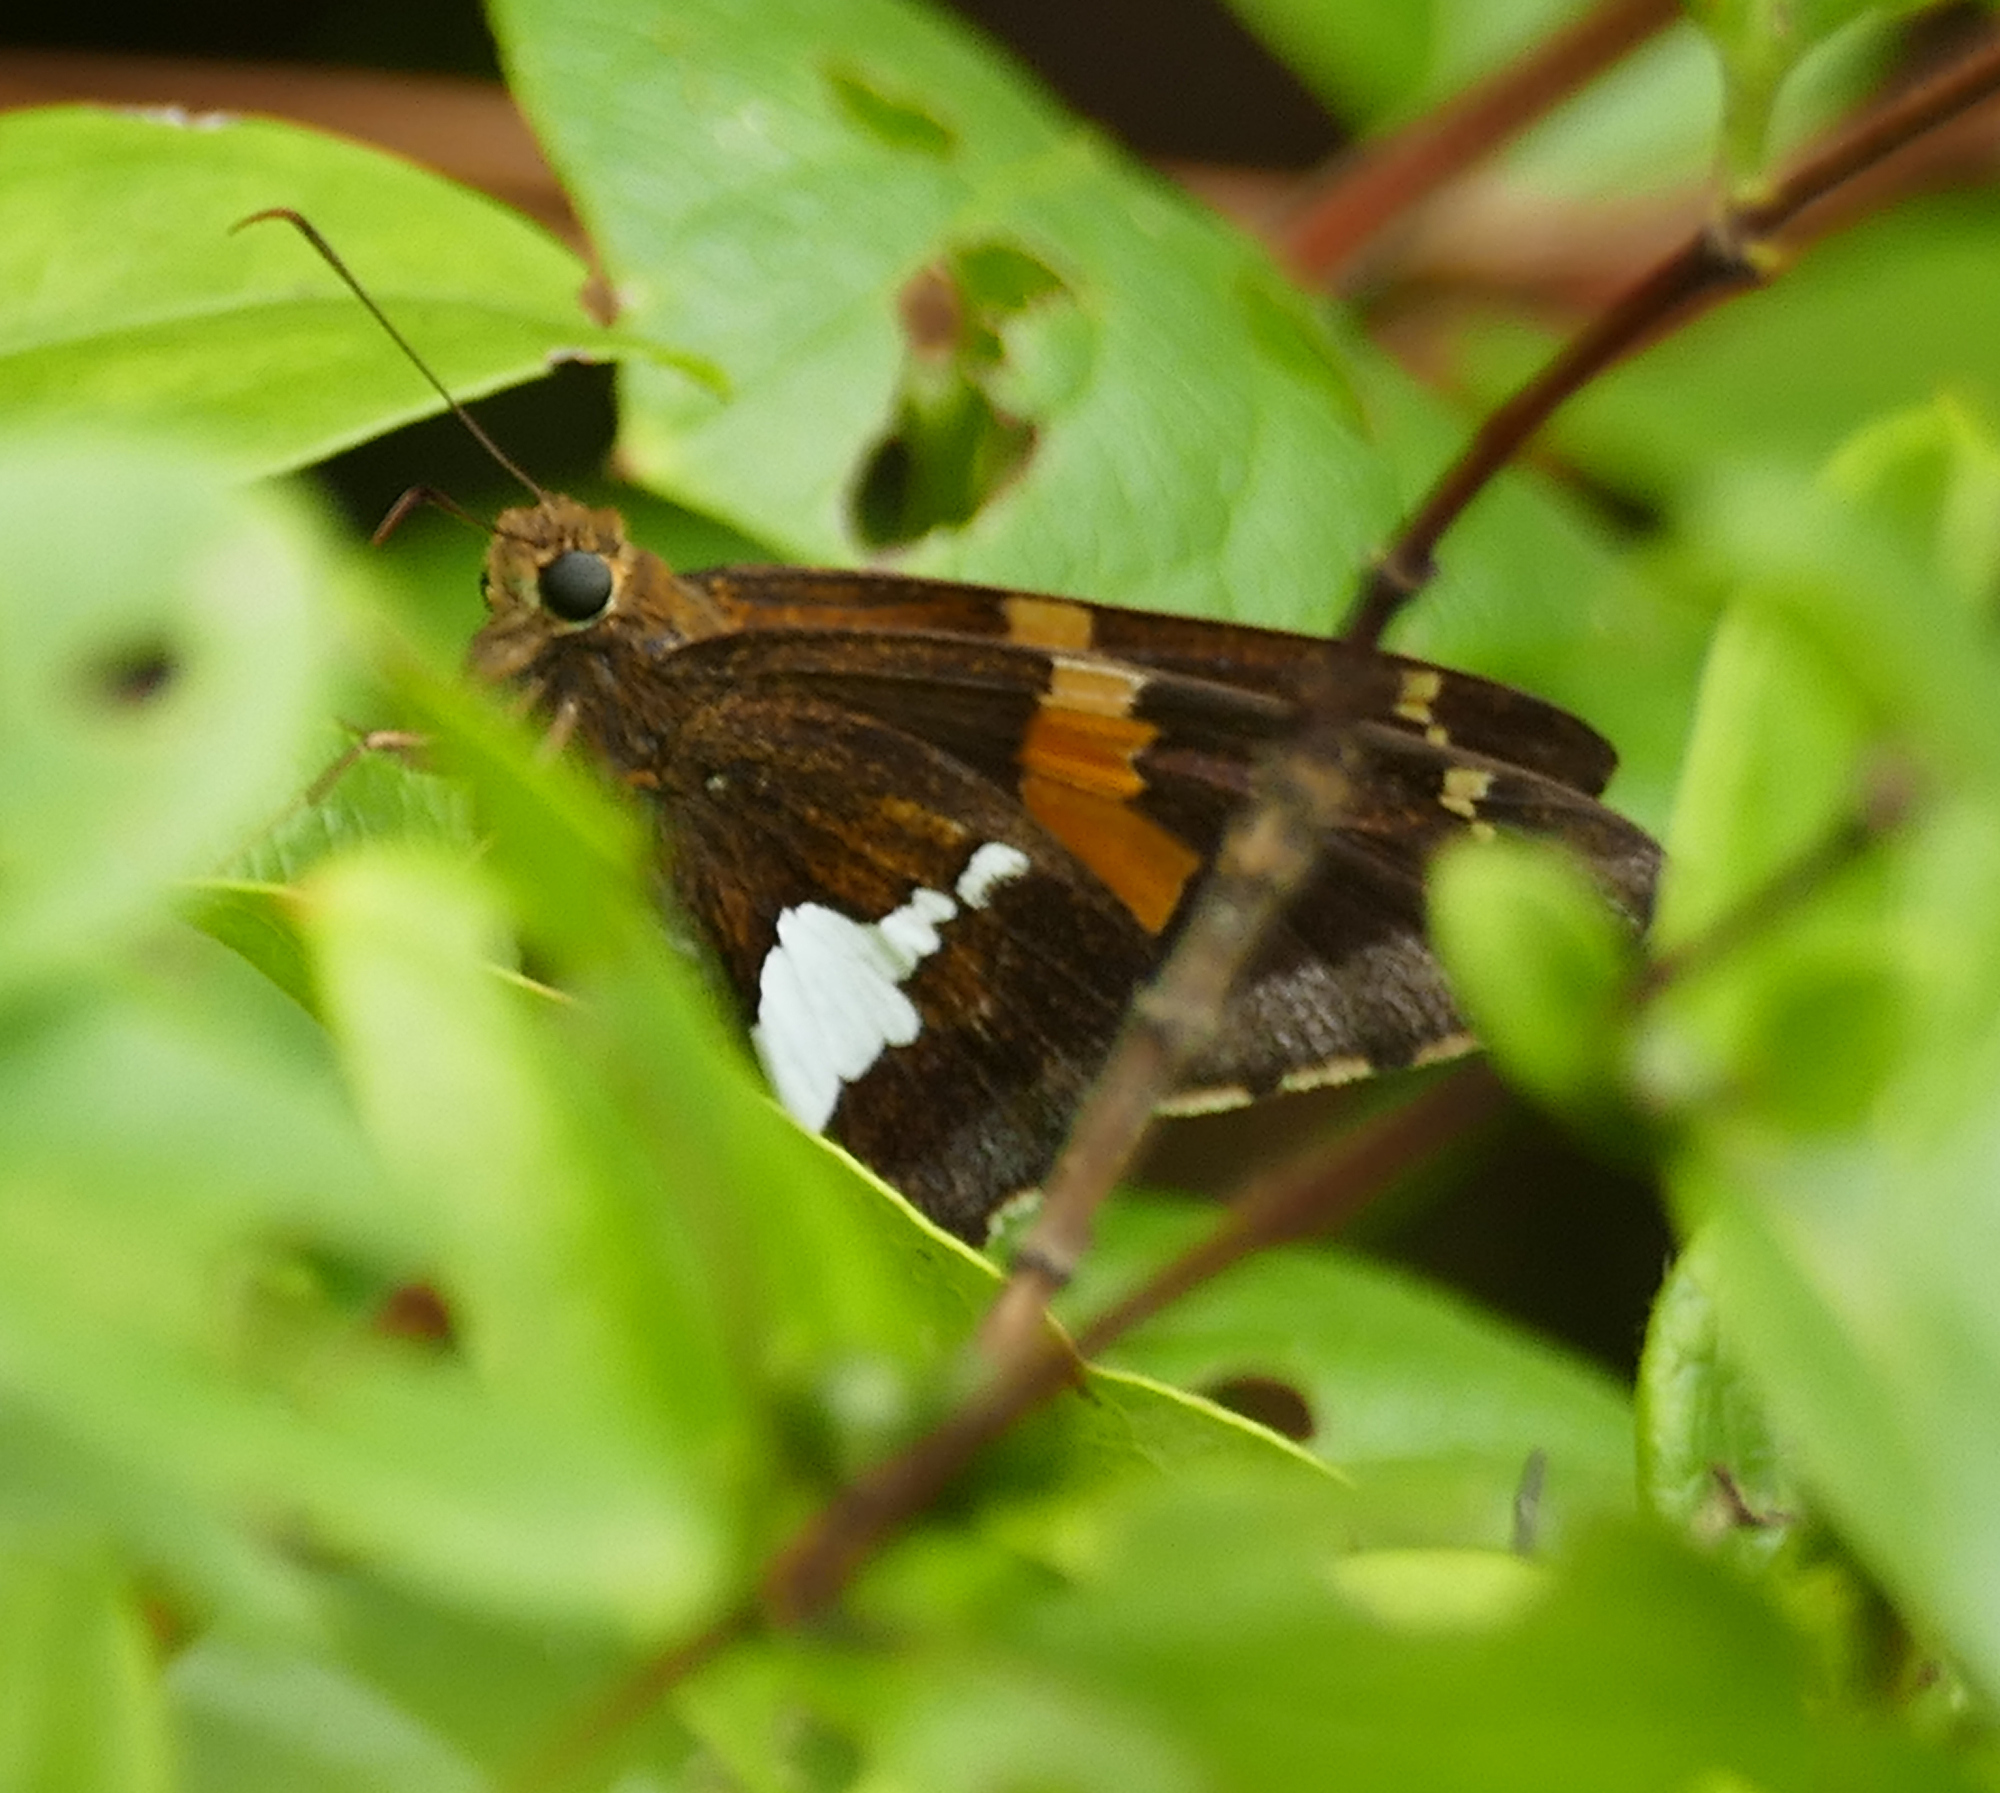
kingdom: Animalia
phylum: Arthropoda
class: Insecta
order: Lepidoptera
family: Hesperiidae
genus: Epargyreus
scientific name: Epargyreus clarus
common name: Silver-spotted skipper
